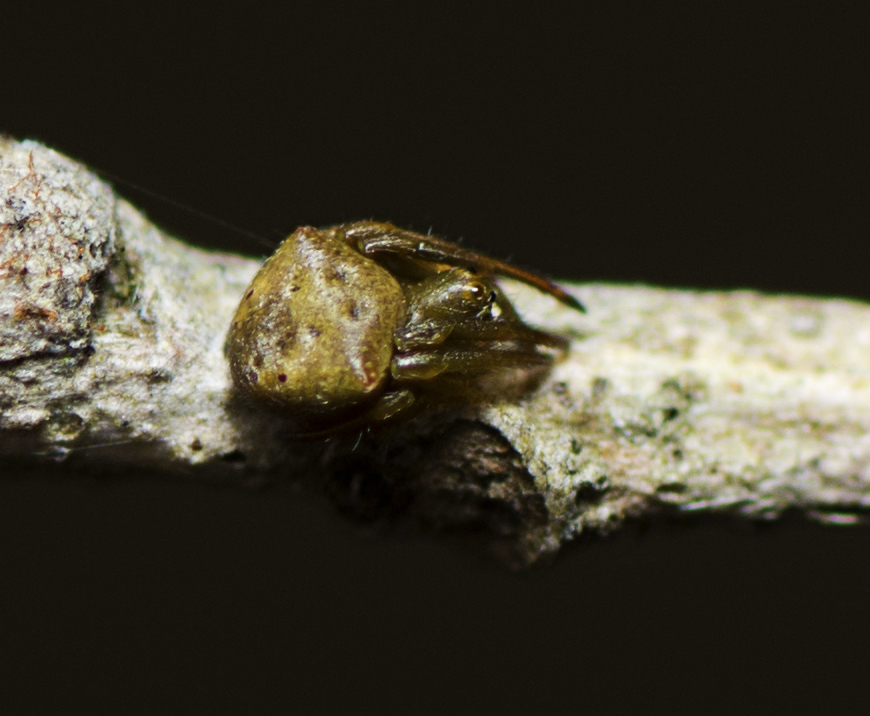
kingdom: Animalia
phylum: Arthropoda
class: Arachnida
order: Araneae
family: Araneidae
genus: Araneus
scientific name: Araneus cyrtarachnoides
